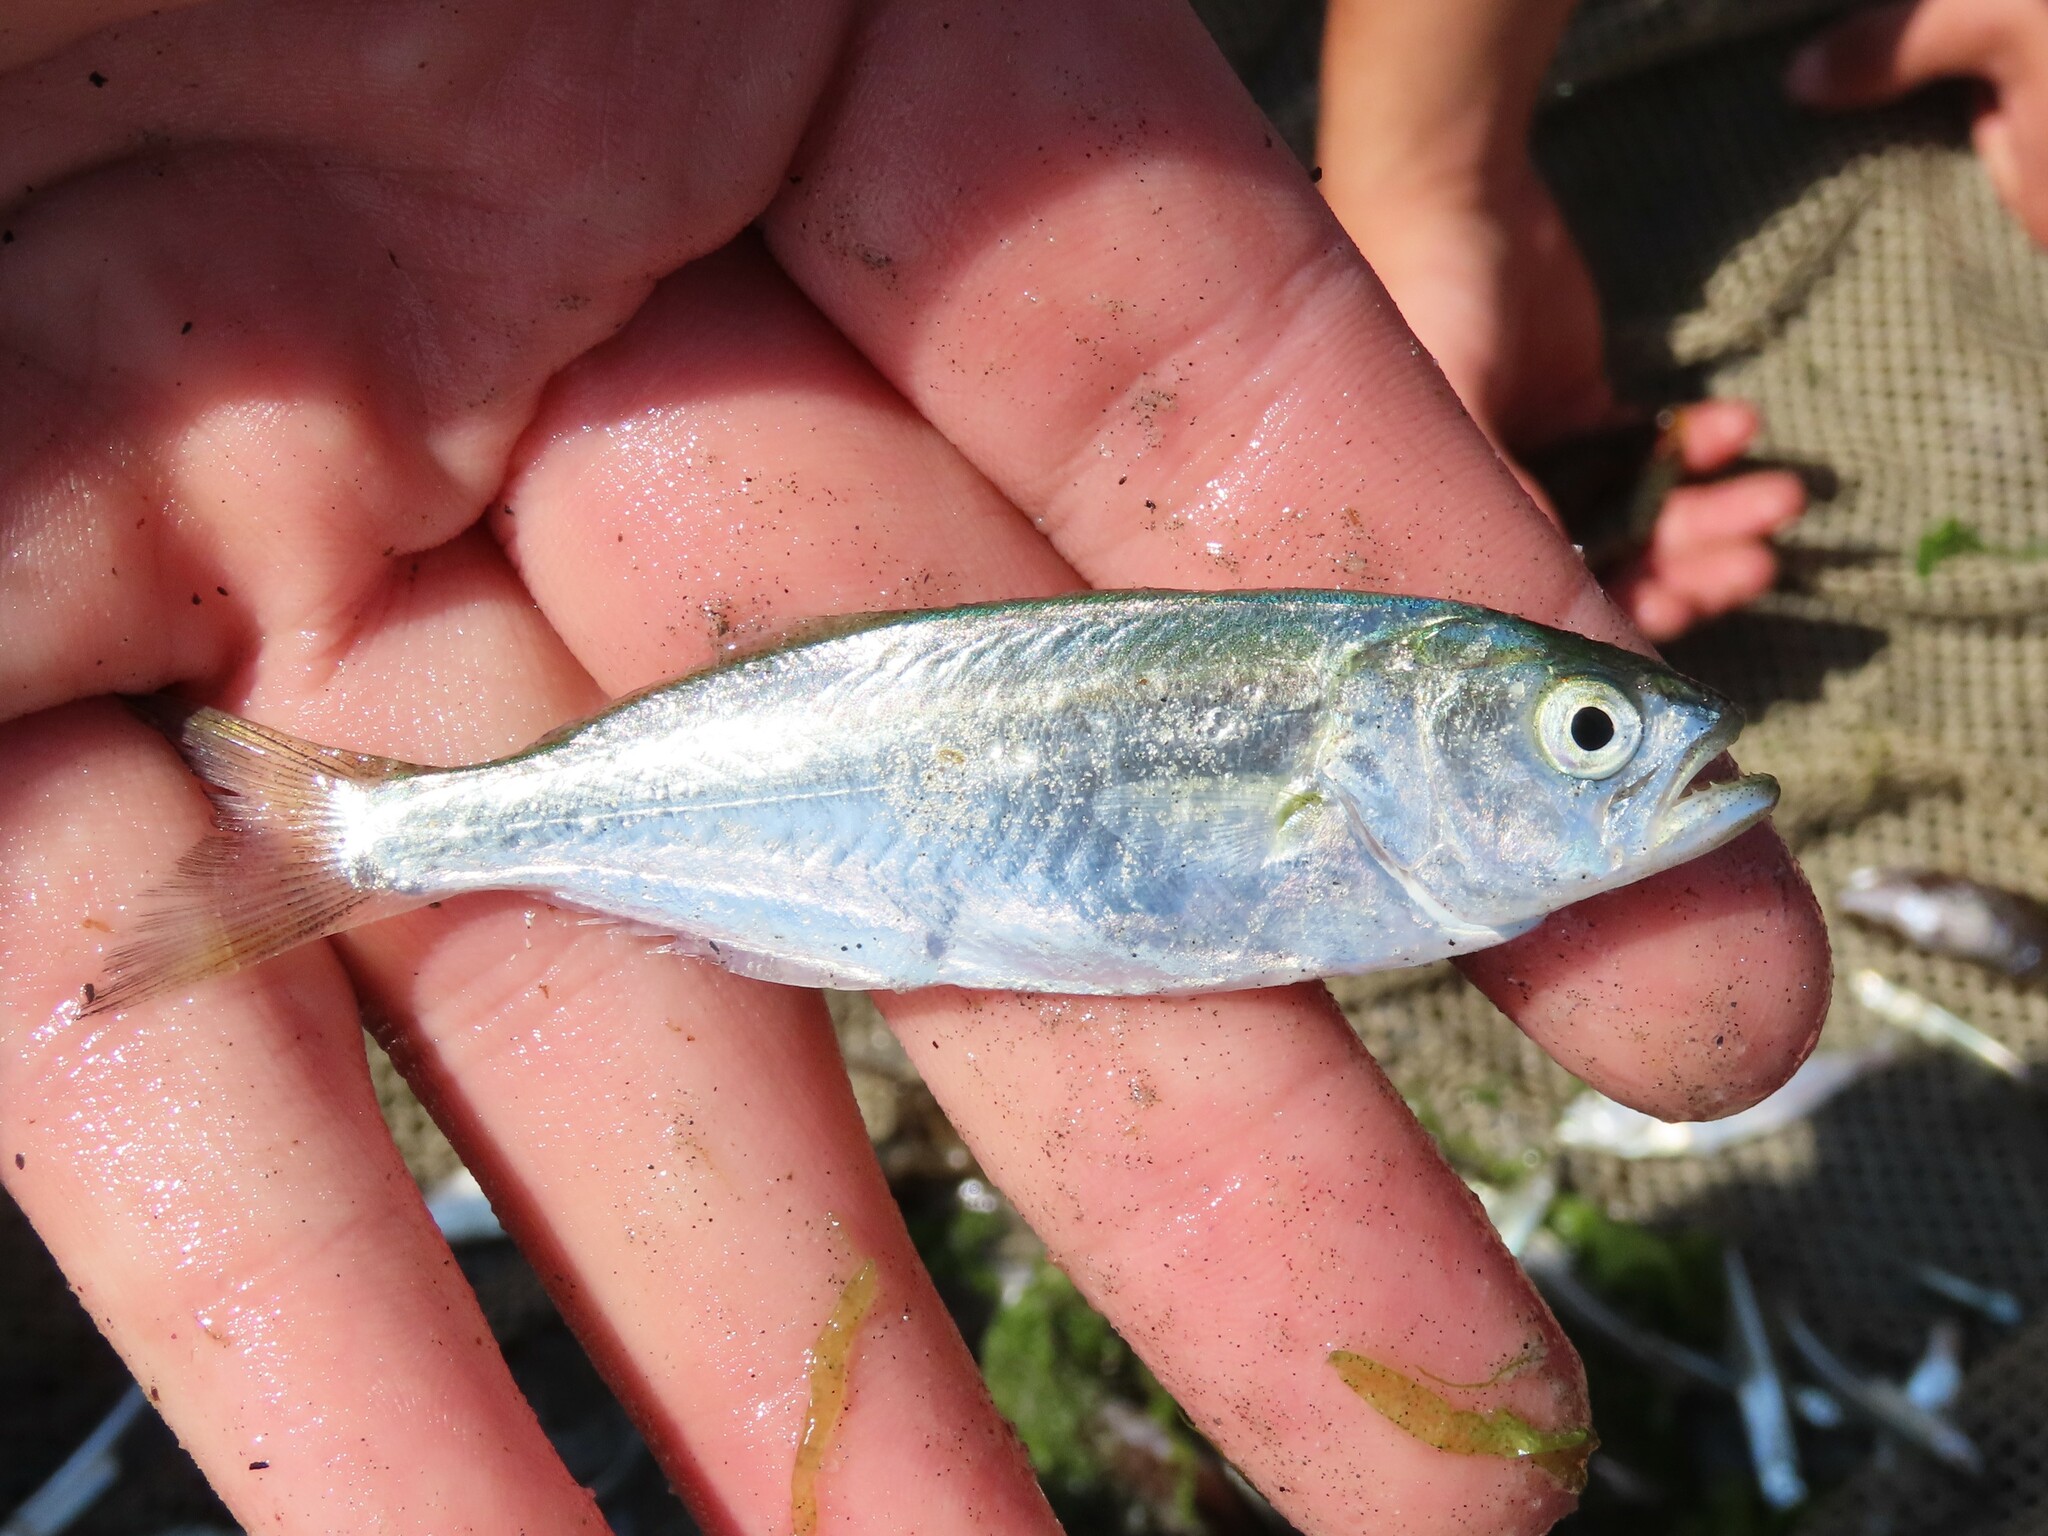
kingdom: Animalia
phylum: Chordata
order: Perciformes
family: Pomatomidae
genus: Pomatomus
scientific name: Pomatomus saltatrix
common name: Bluefish
